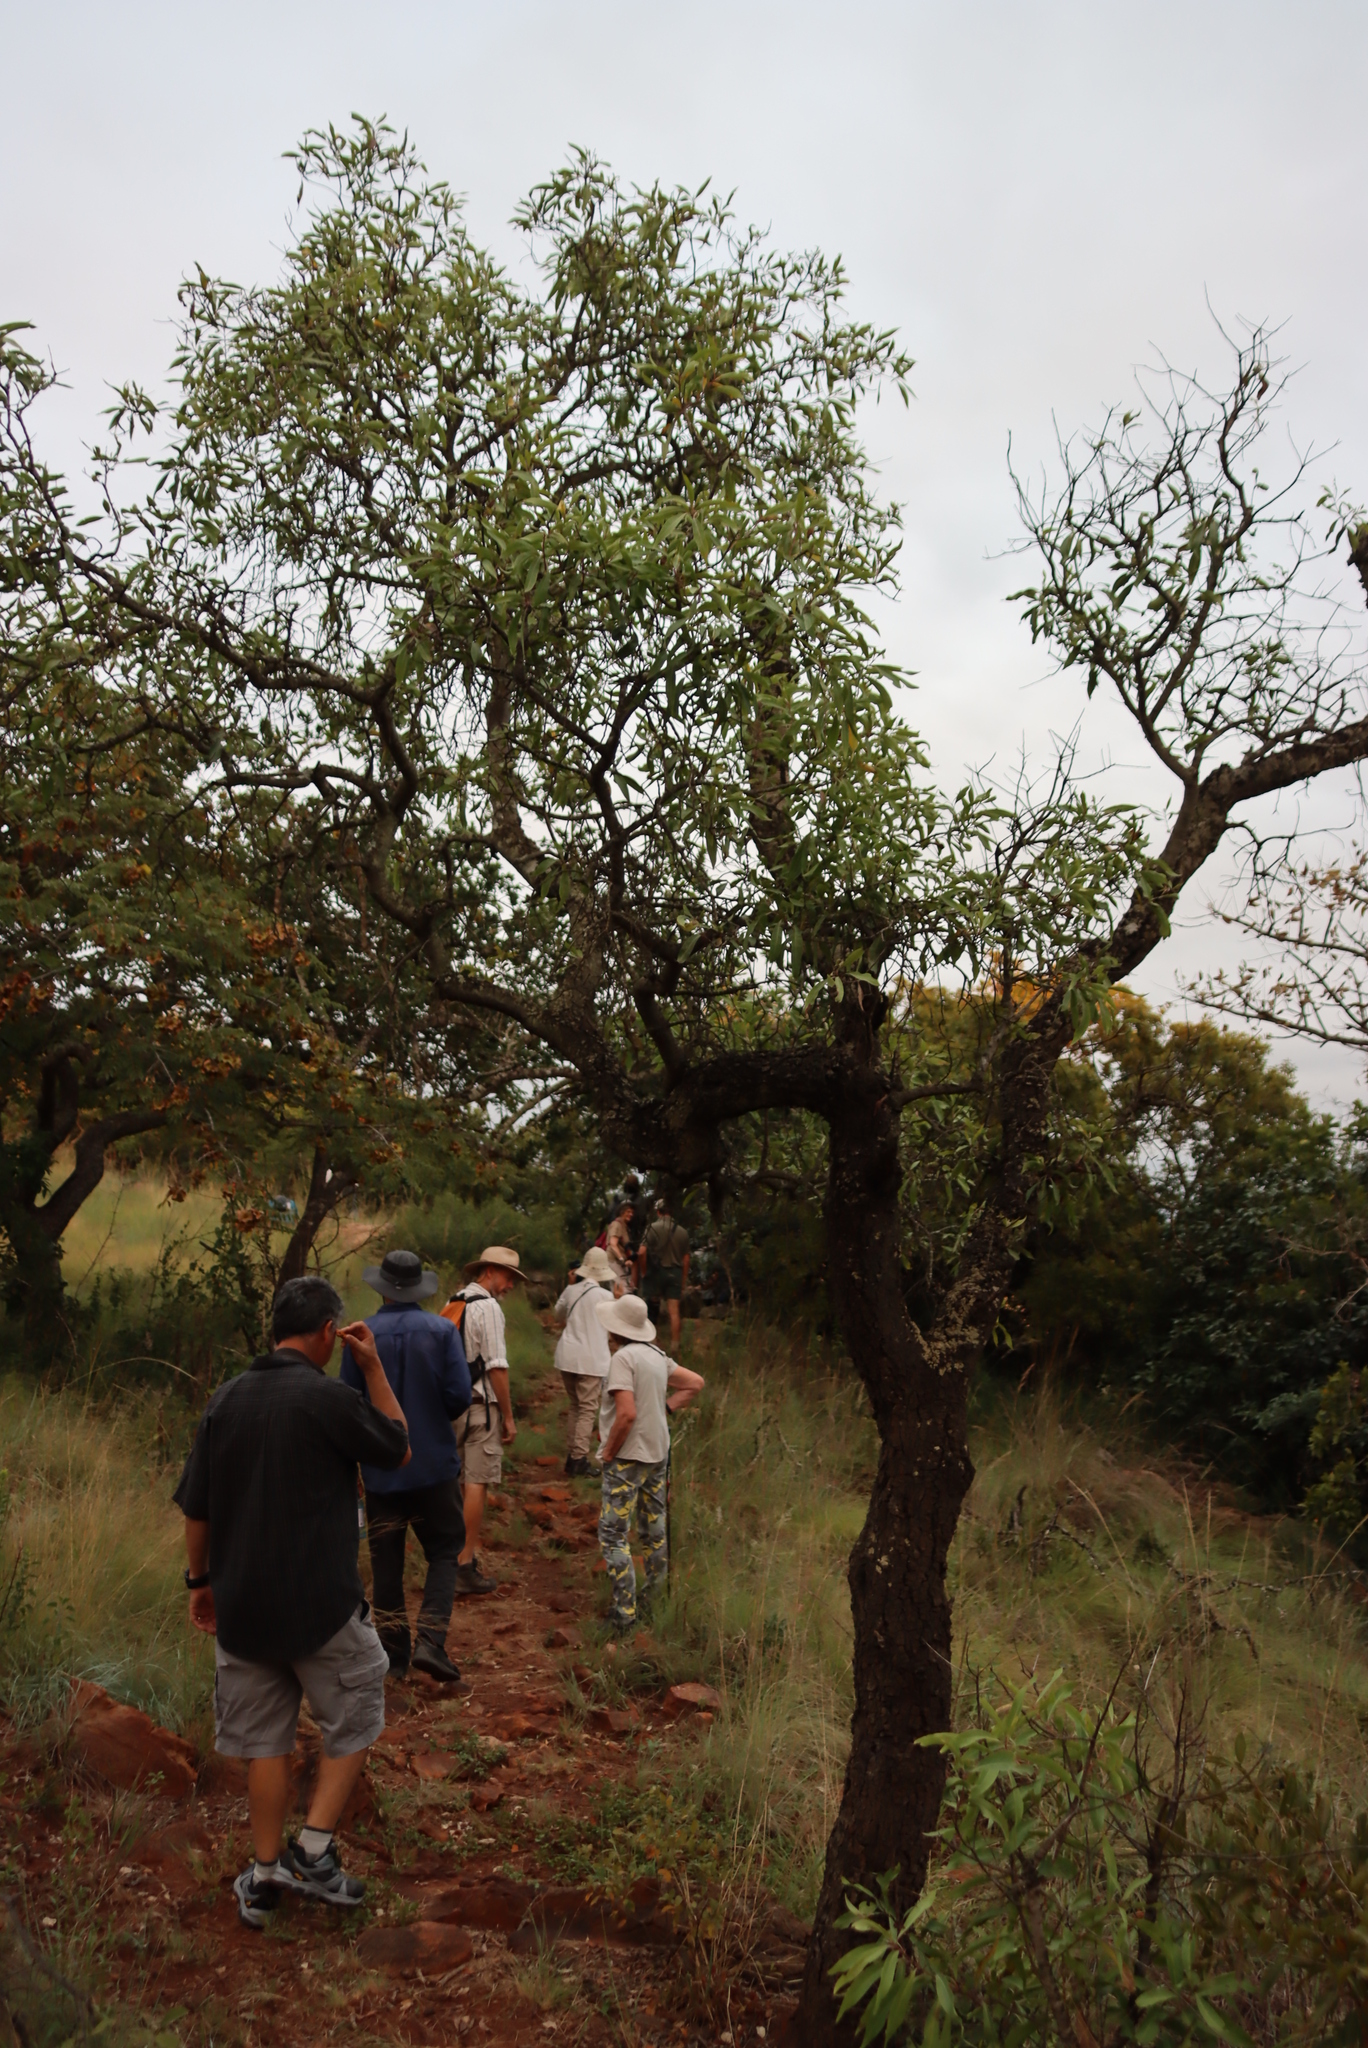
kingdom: Plantae
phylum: Tracheophyta
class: Magnoliopsida
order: Proteales
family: Proteaceae
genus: Faurea
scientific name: Faurea saligna
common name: African bean
